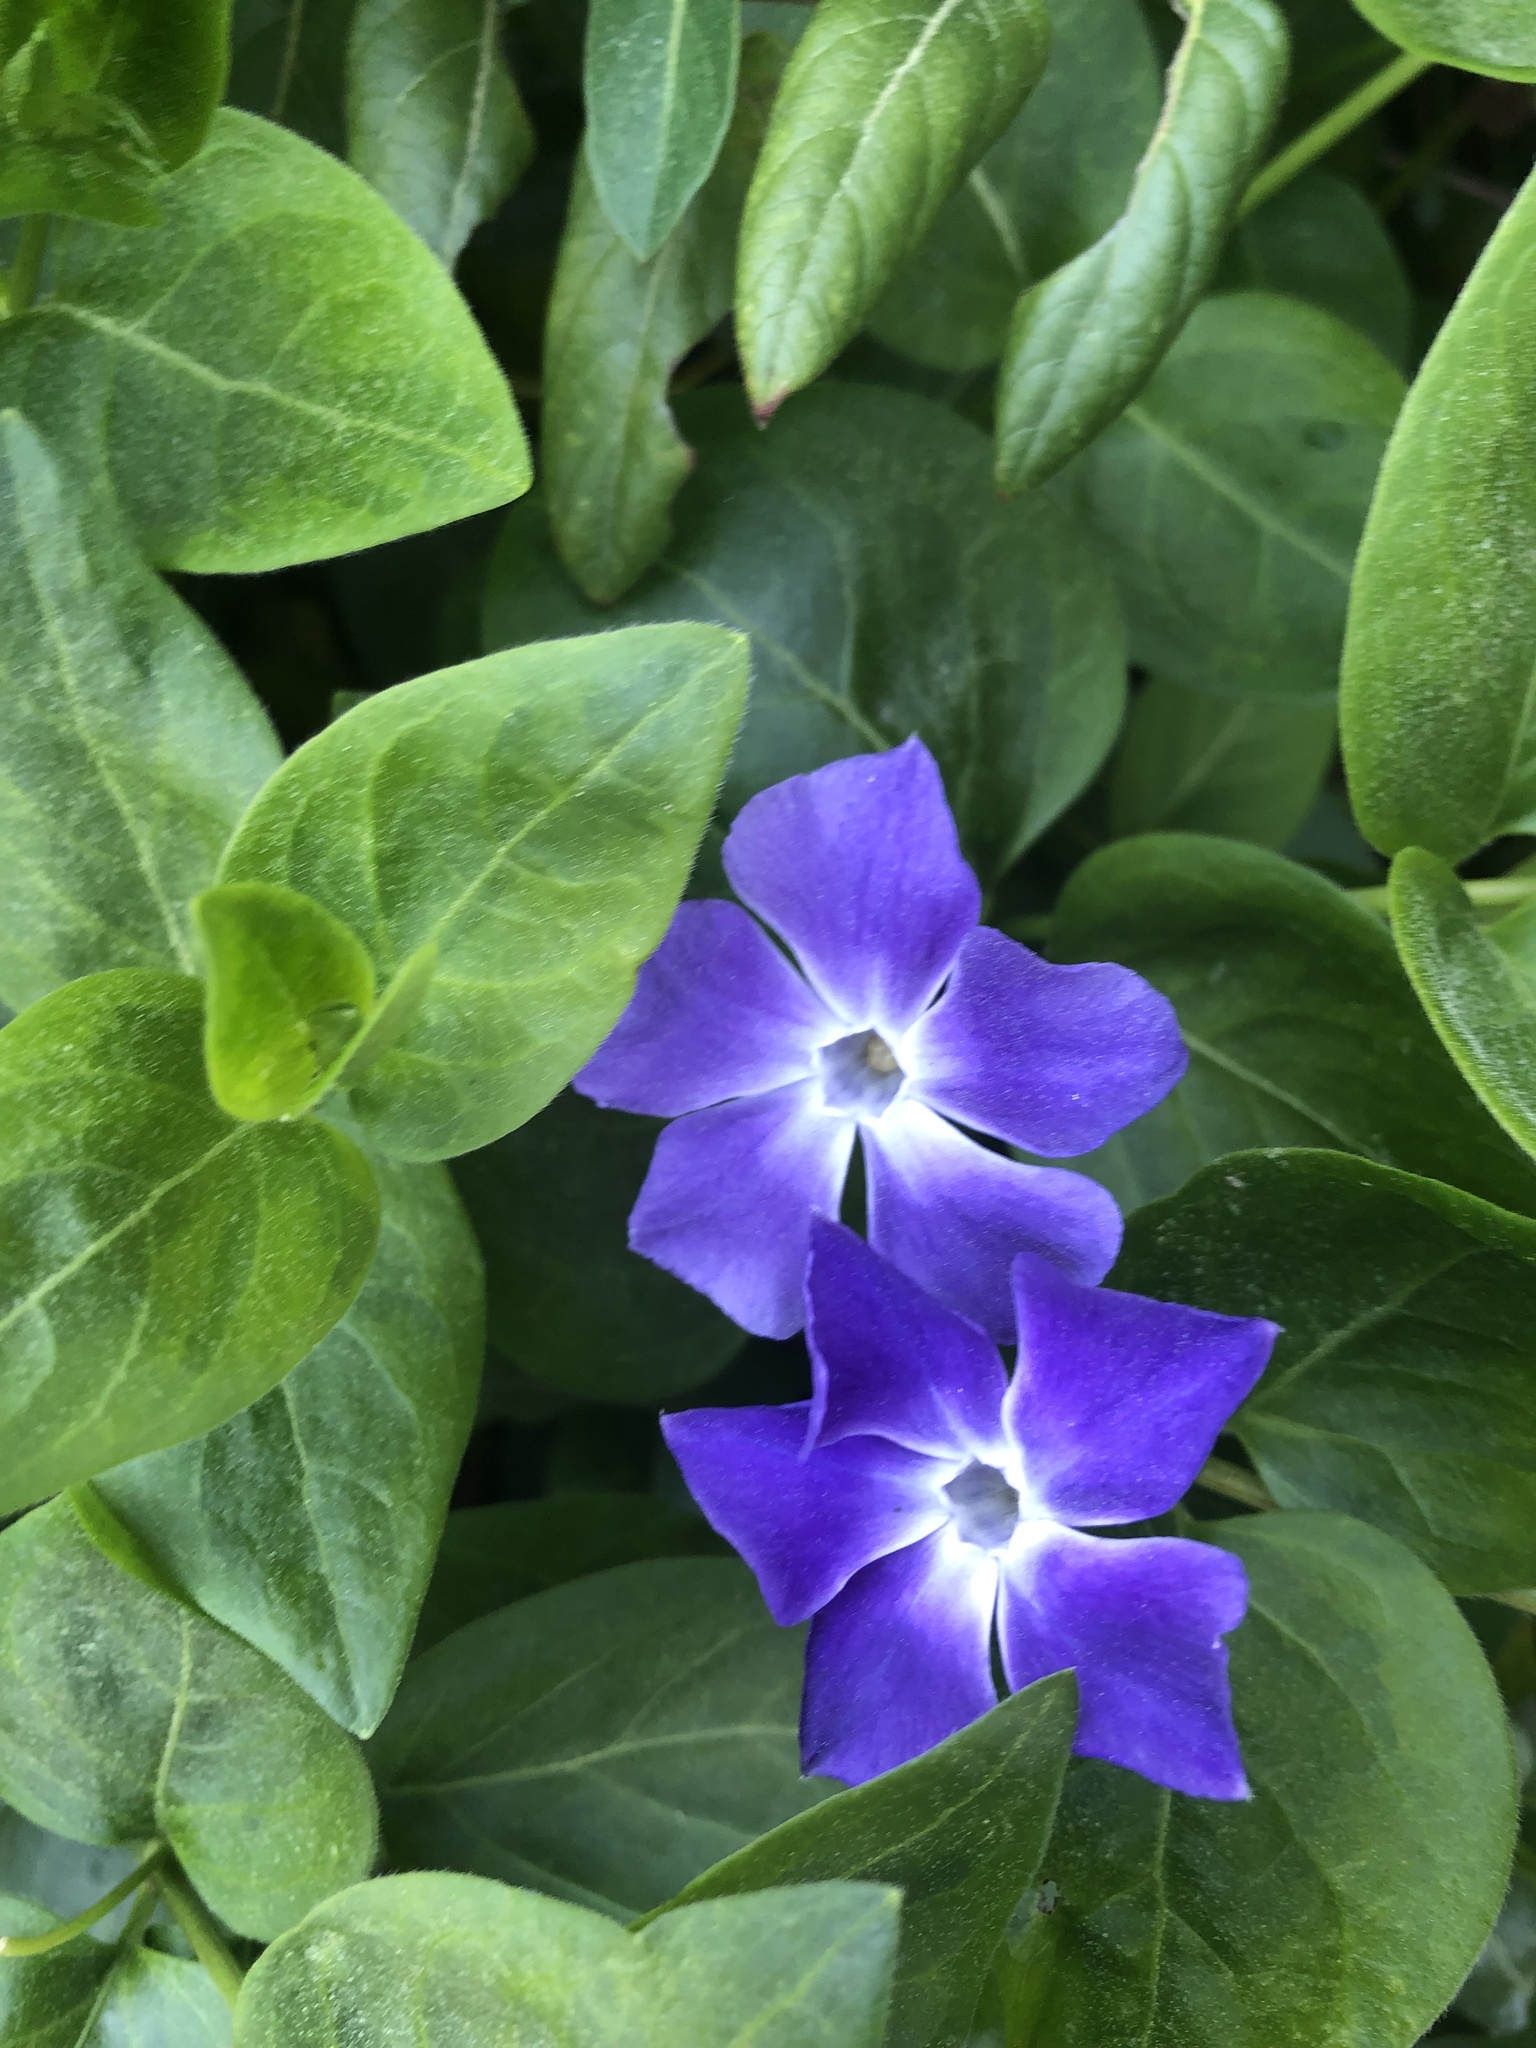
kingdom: Plantae
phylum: Tracheophyta
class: Magnoliopsida
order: Gentianales
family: Apocynaceae
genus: Vinca
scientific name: Vinca major
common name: Greater periwinkle
